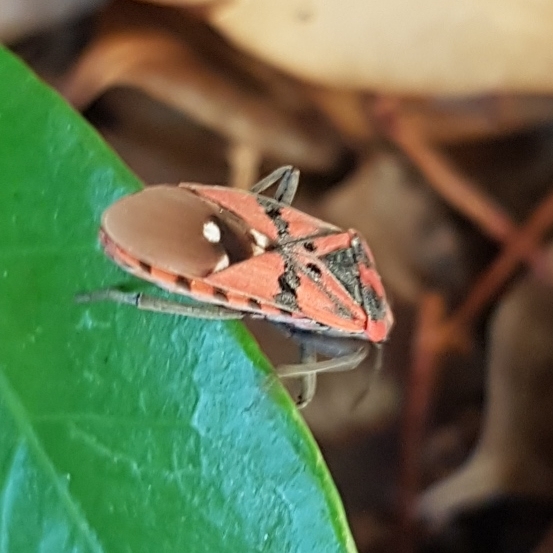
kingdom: Animalia
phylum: Arthropoda
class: Insecta
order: Hemiptera
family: Lygaeidae
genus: Spilostethus
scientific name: Spilostethus pandurus
